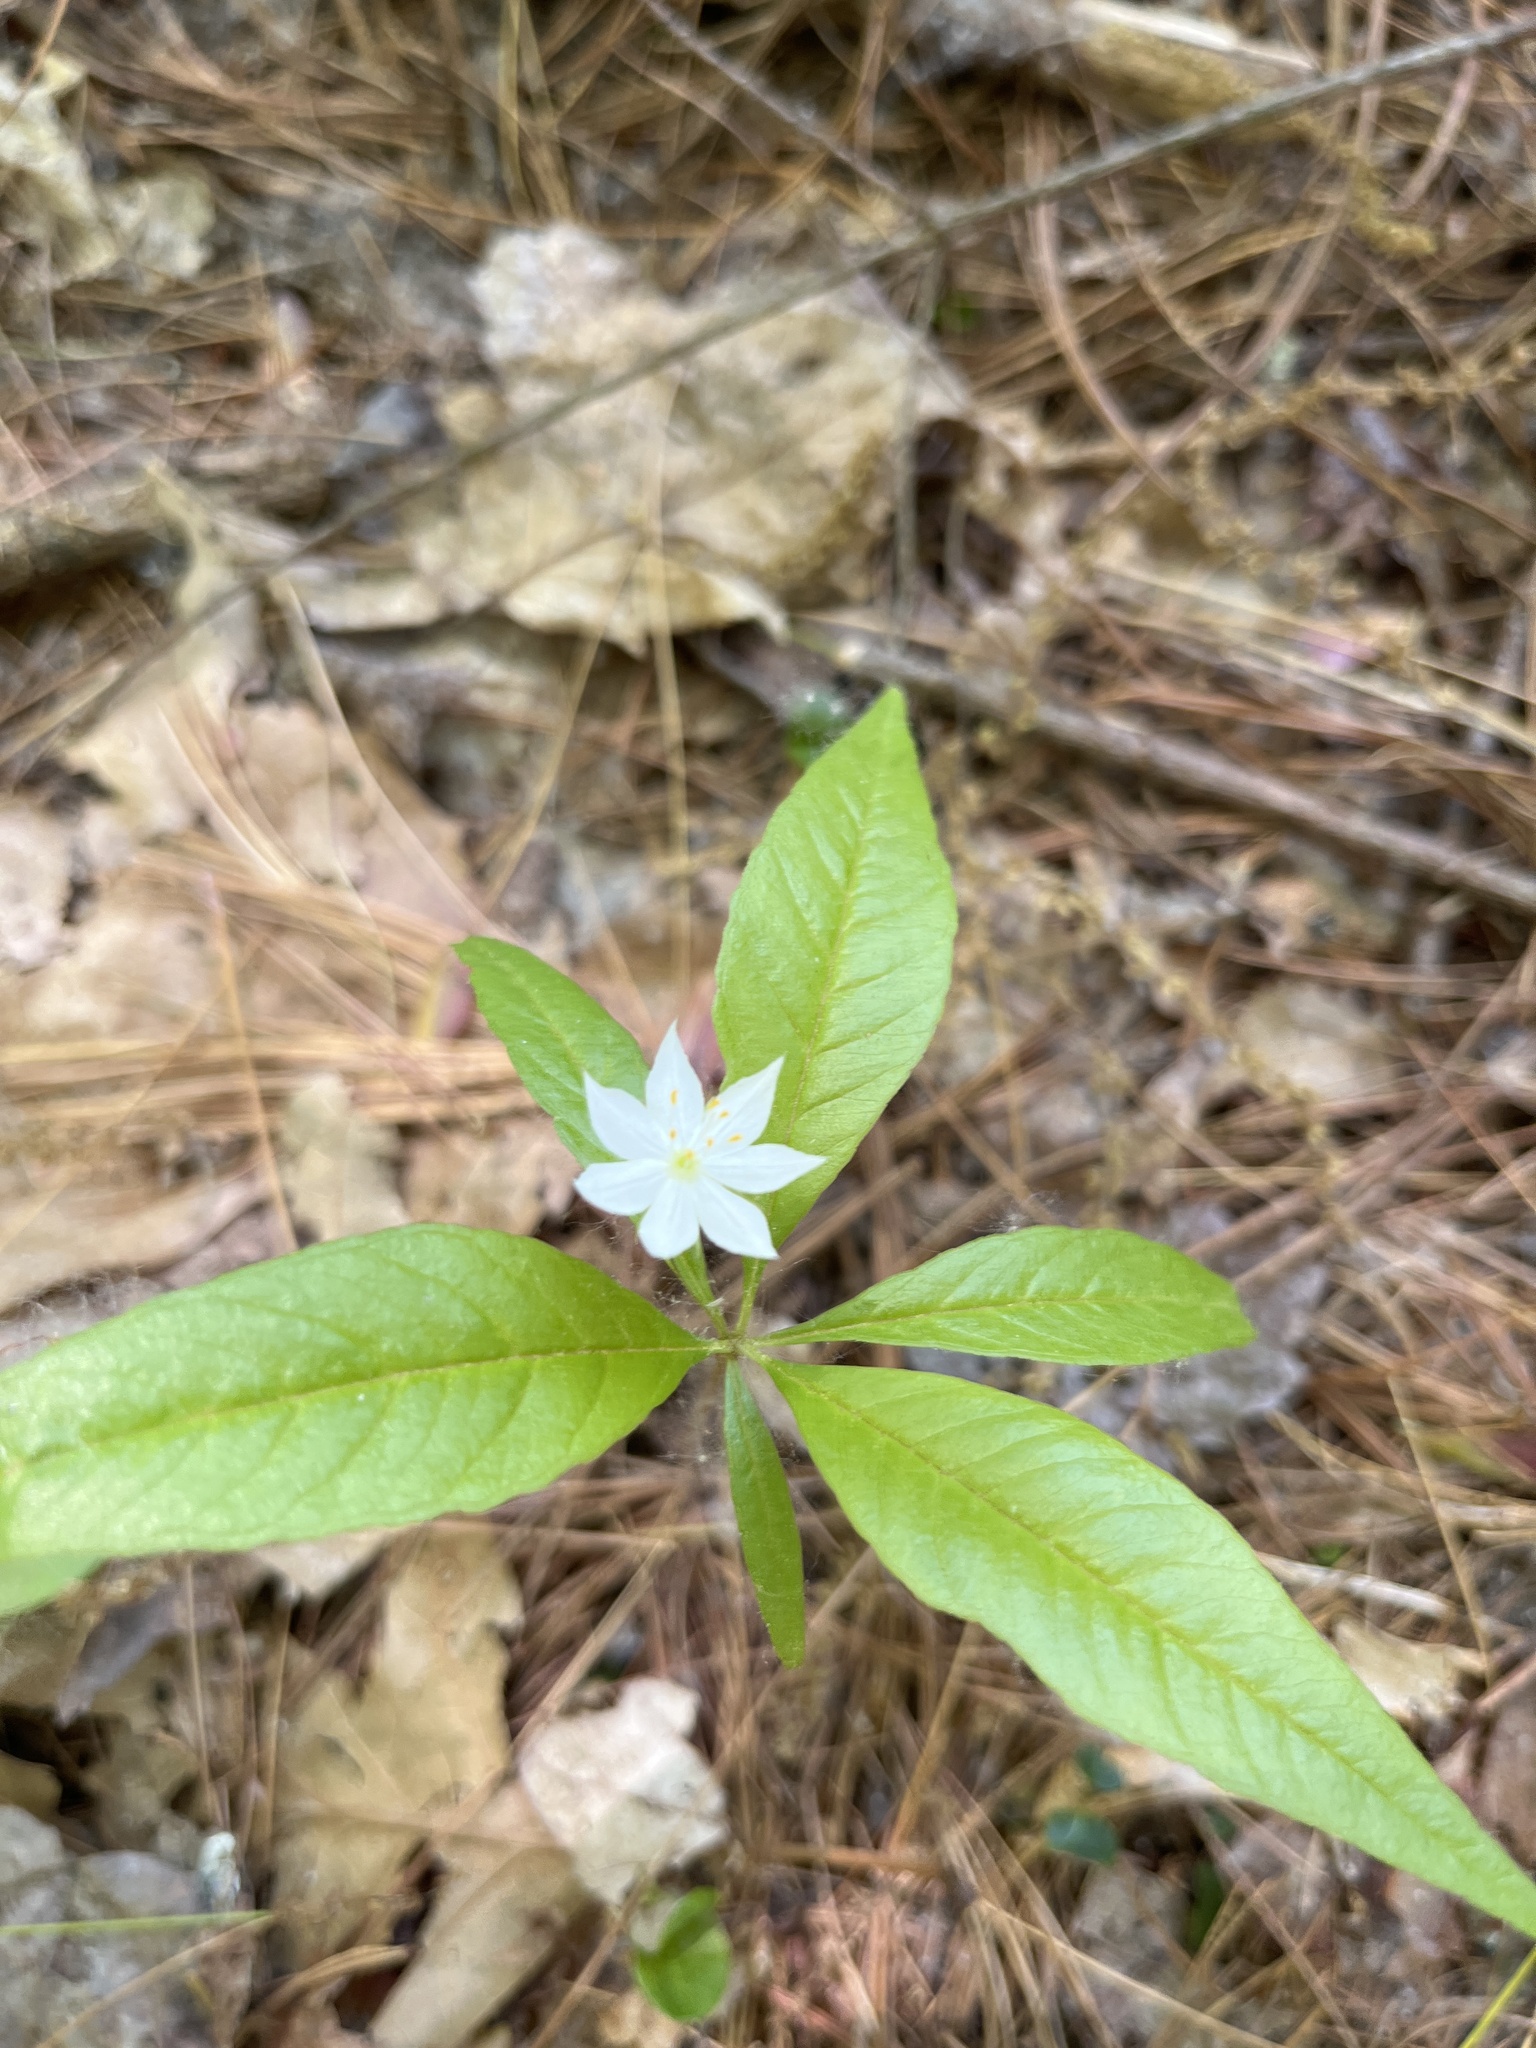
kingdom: Plantae
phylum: Tracheophyta
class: Magnoliopsida
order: Ericales
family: Primulaceae
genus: Lysimachia
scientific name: Lysimachia borealis
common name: American starflower
